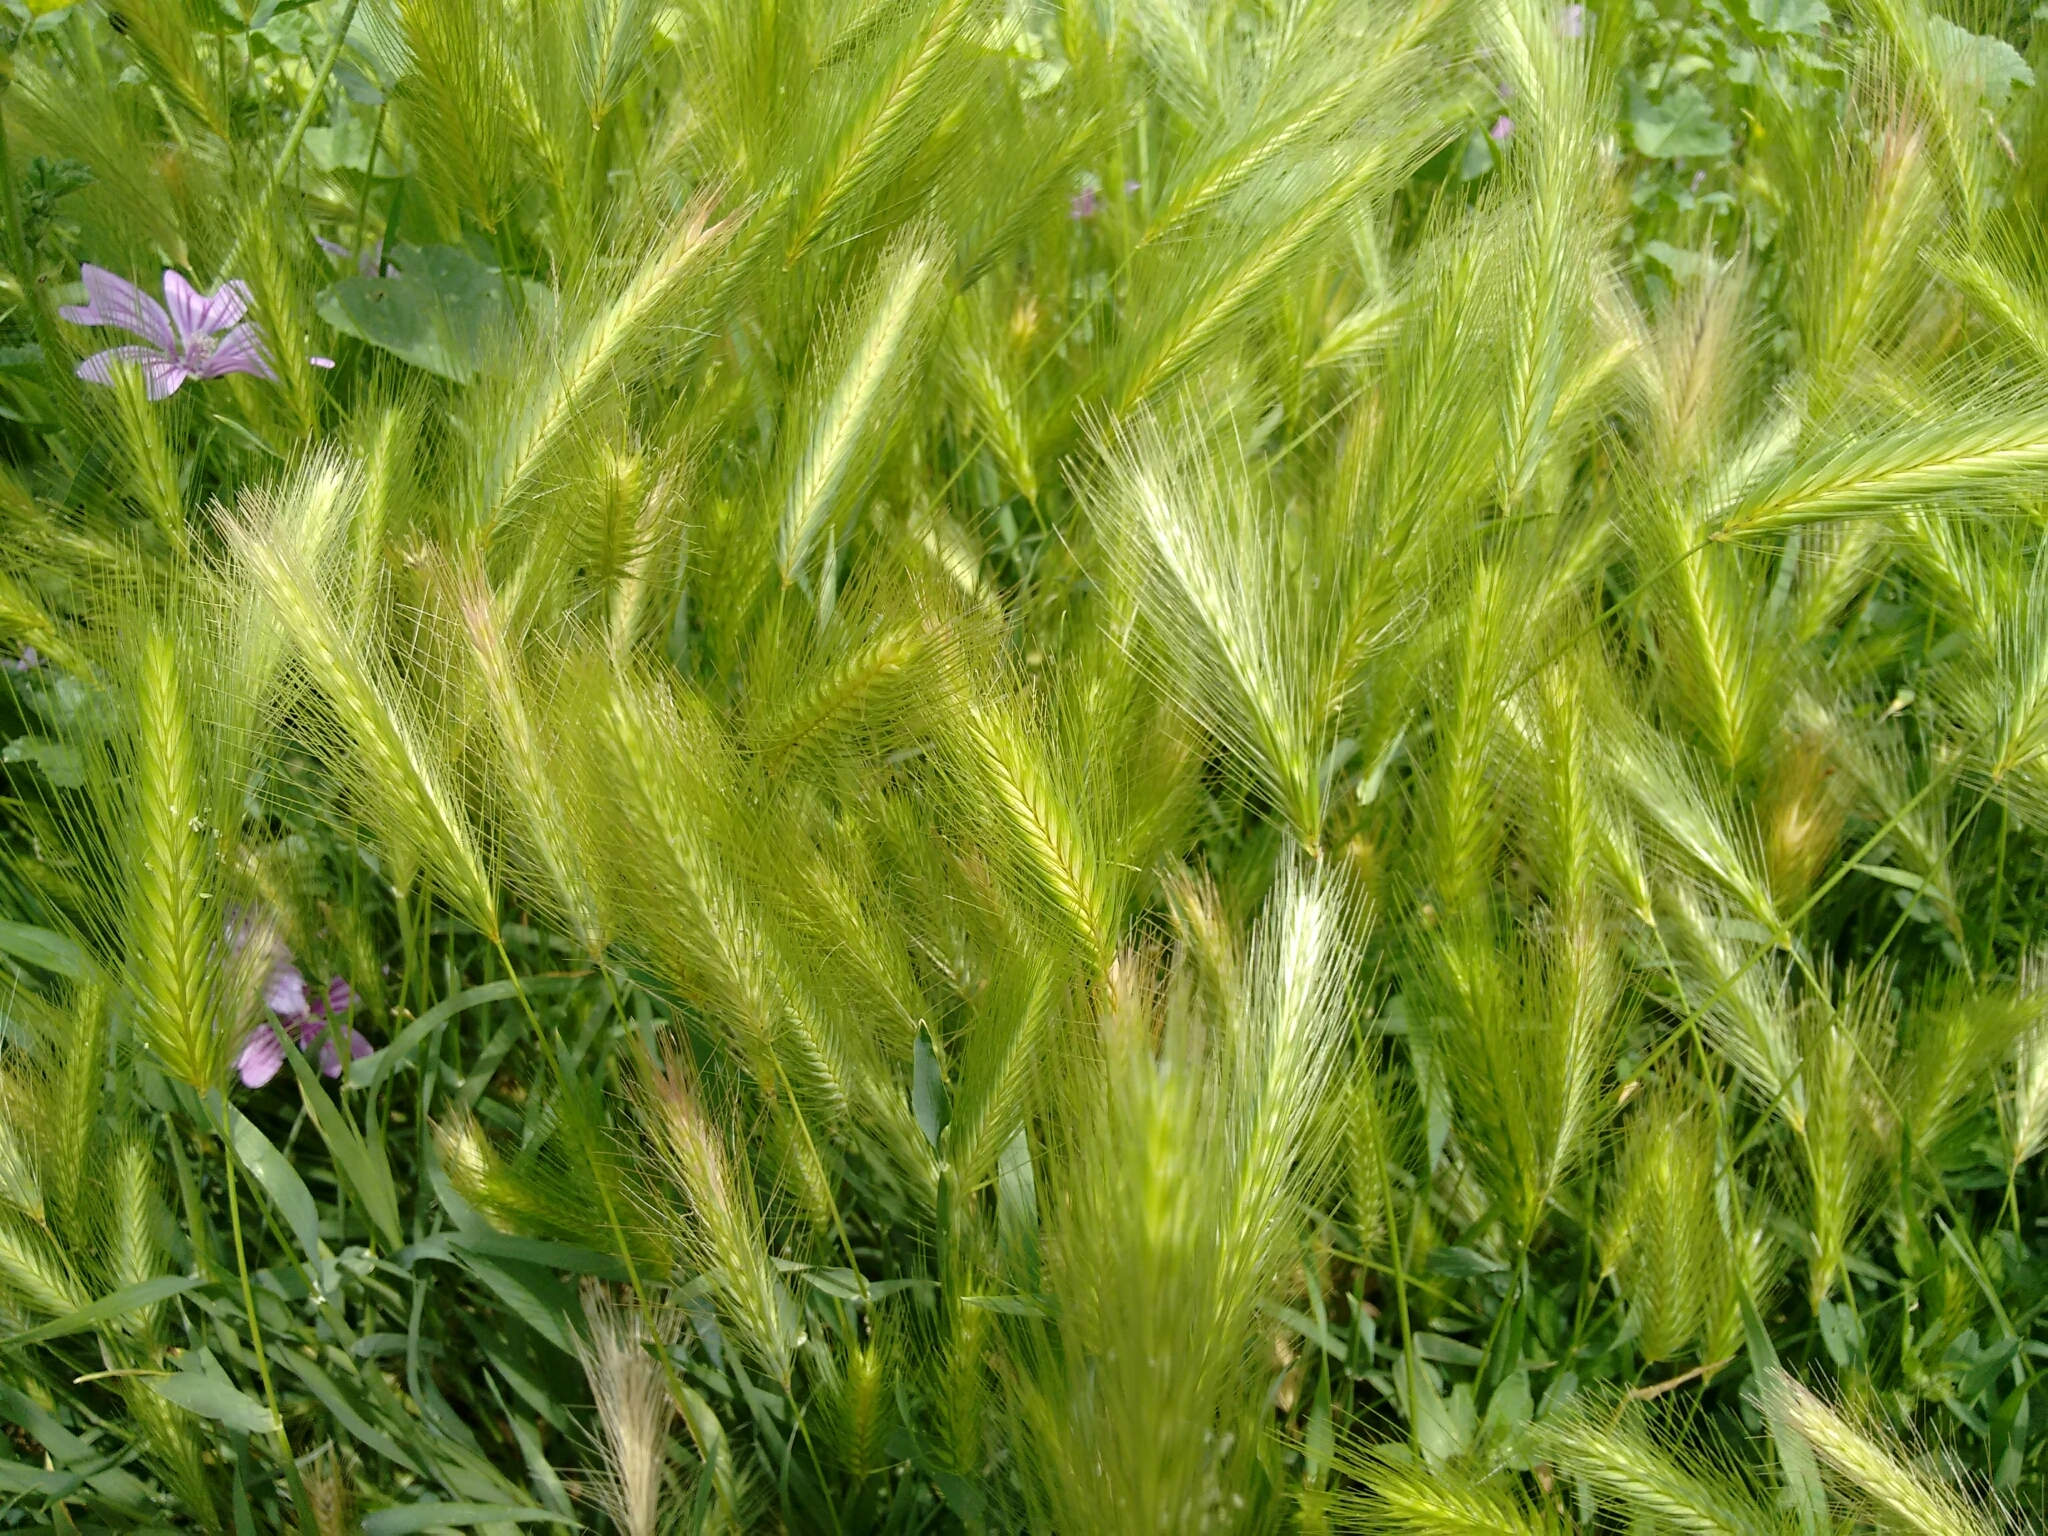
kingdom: Plantae
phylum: Tracheophyta
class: Liliopsida
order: Poales
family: Poaceae
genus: Hordeum
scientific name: Hordeum murinum
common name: Wall barley
